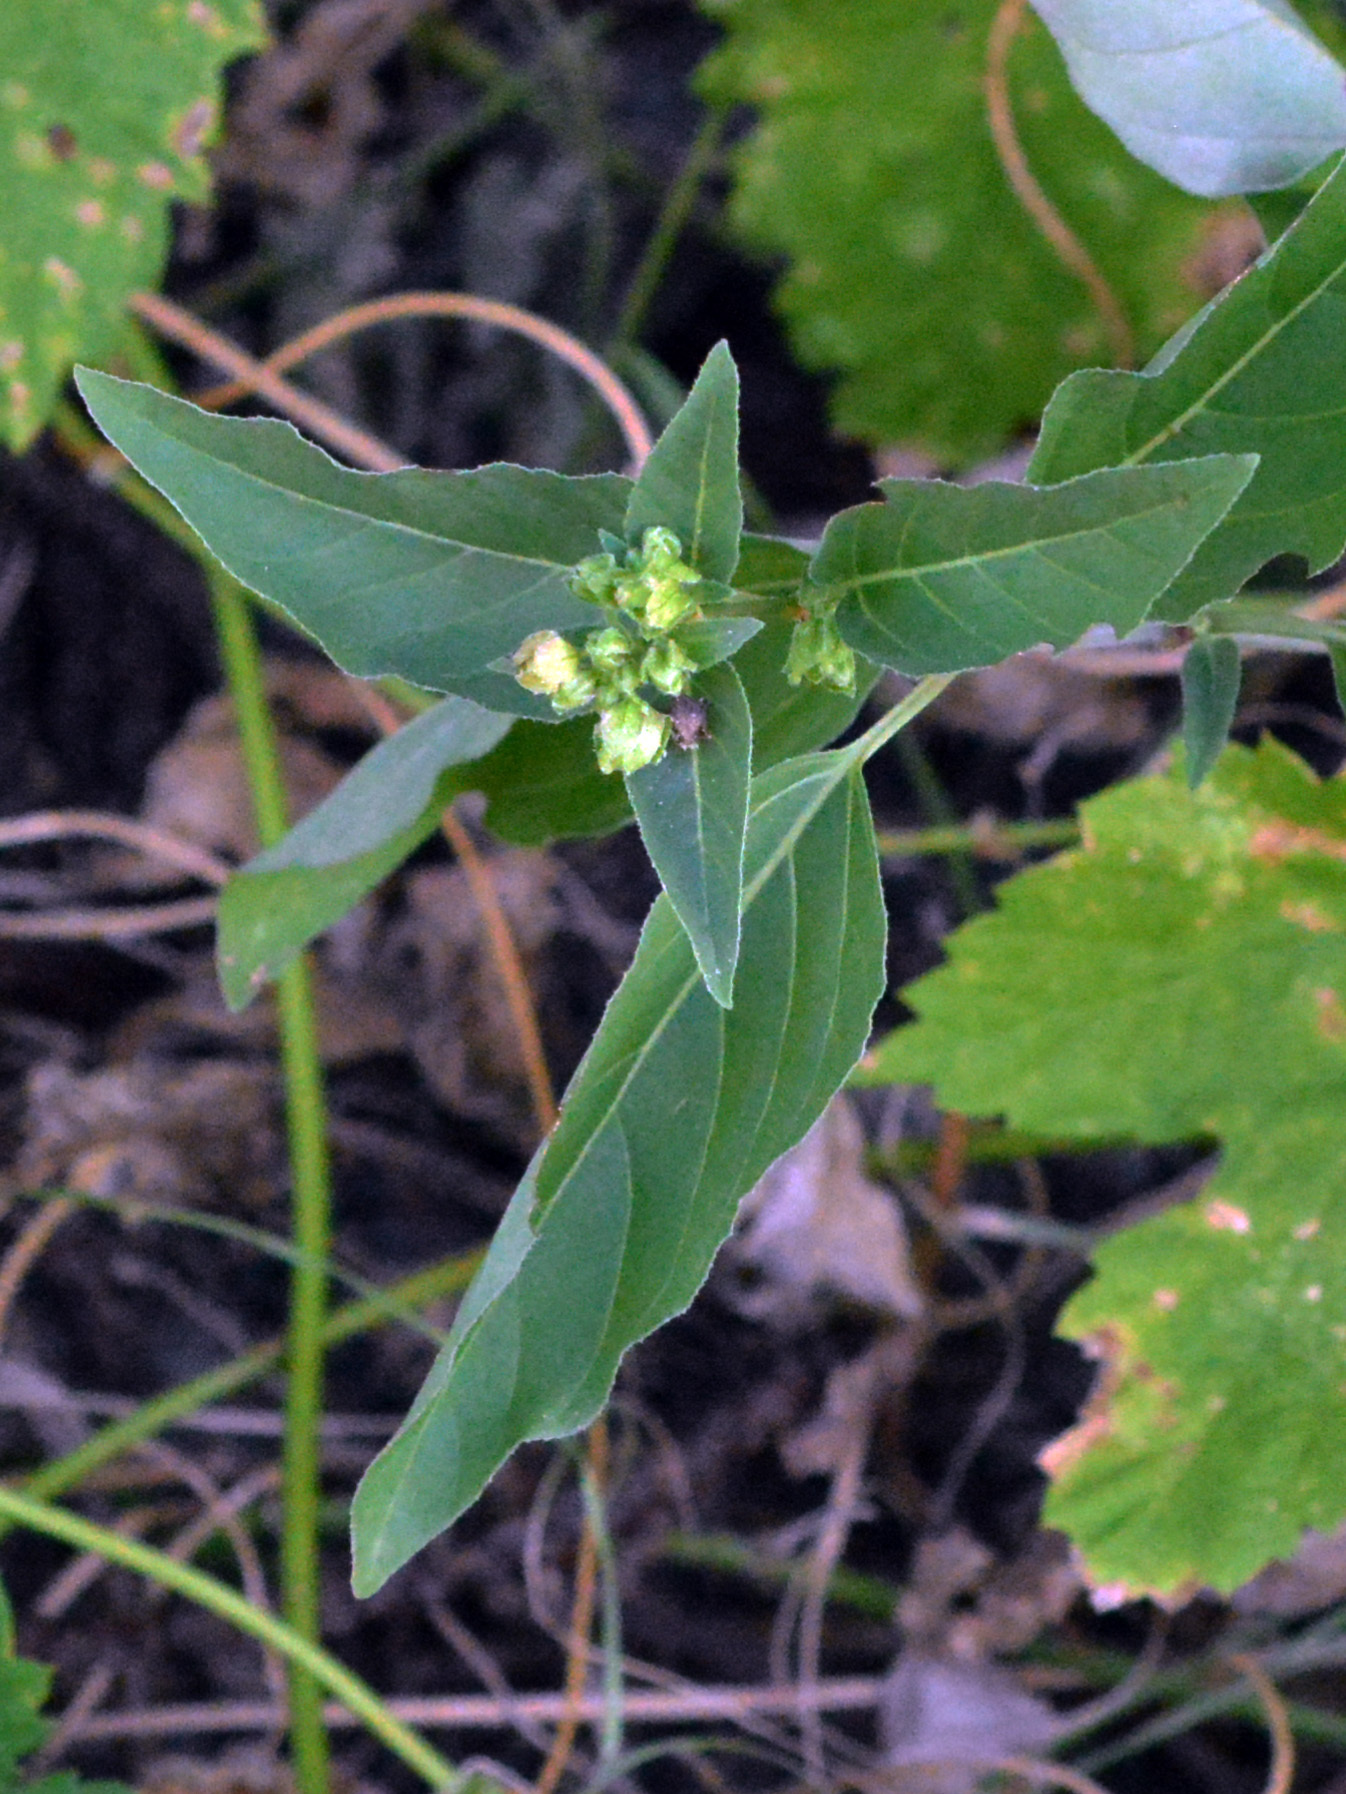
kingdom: Plantae
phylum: Tracheophyta
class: Magnoliopsida
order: Caryophyllales
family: Nyctaginaceae
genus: Mirabilis
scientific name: Mirabilis nyctaginea
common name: Umbrella wort
